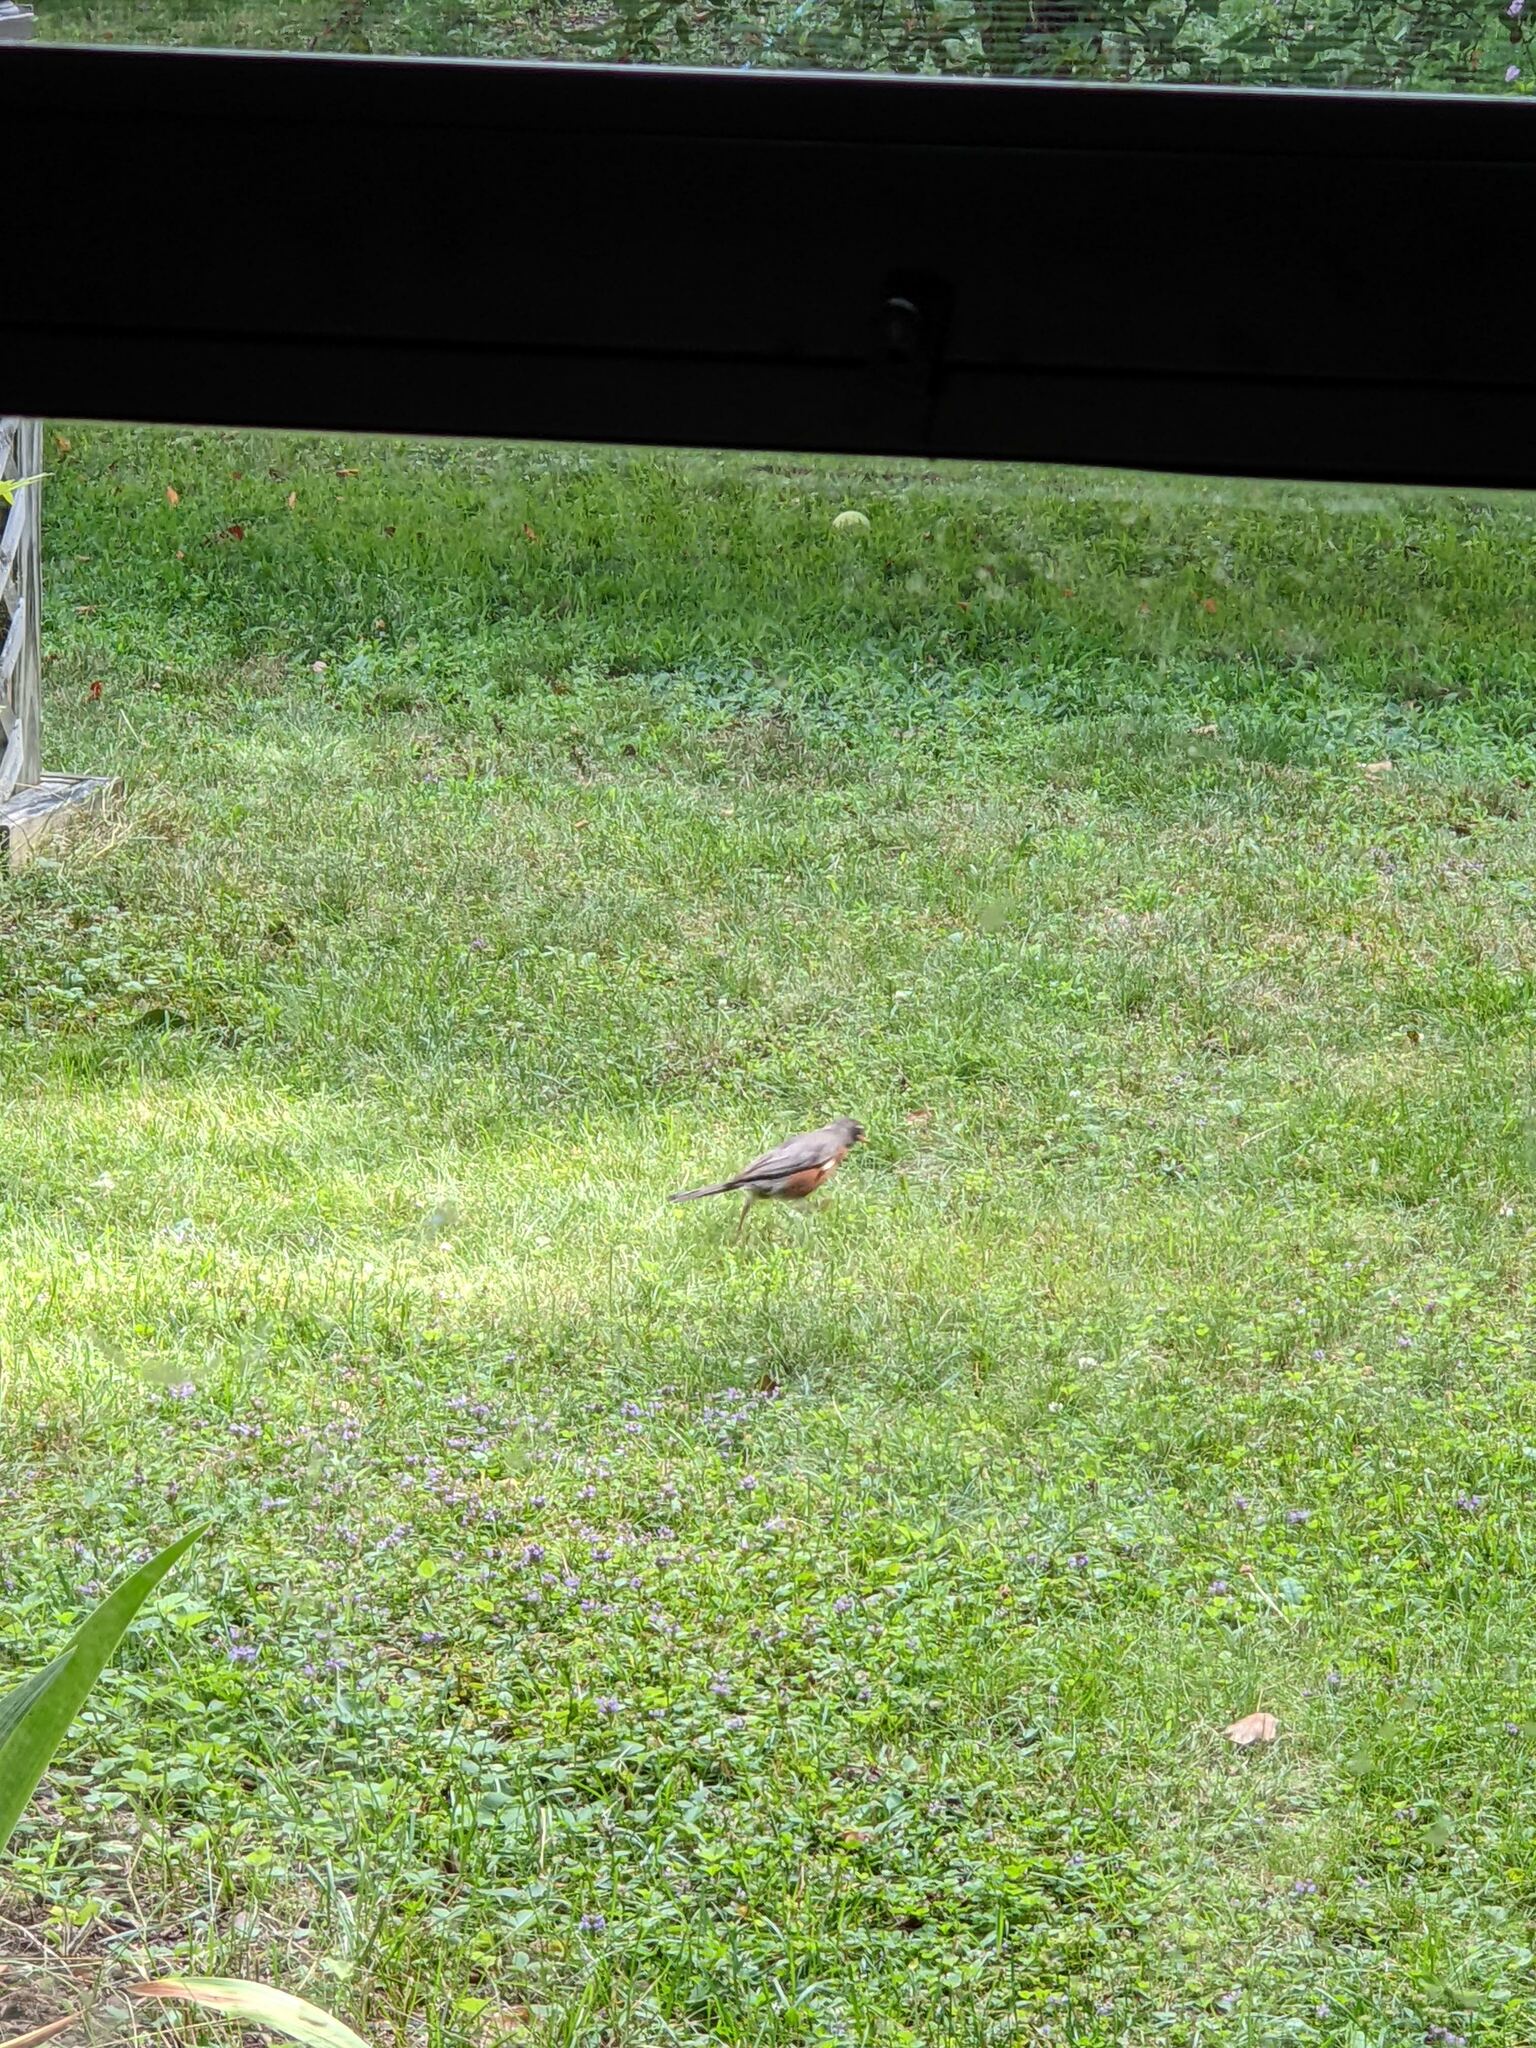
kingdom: Animalia
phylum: Chordata
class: Aves
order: Passeriformes
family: Turdidae
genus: Turdus
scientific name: Turdus migratorius
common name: American robin
